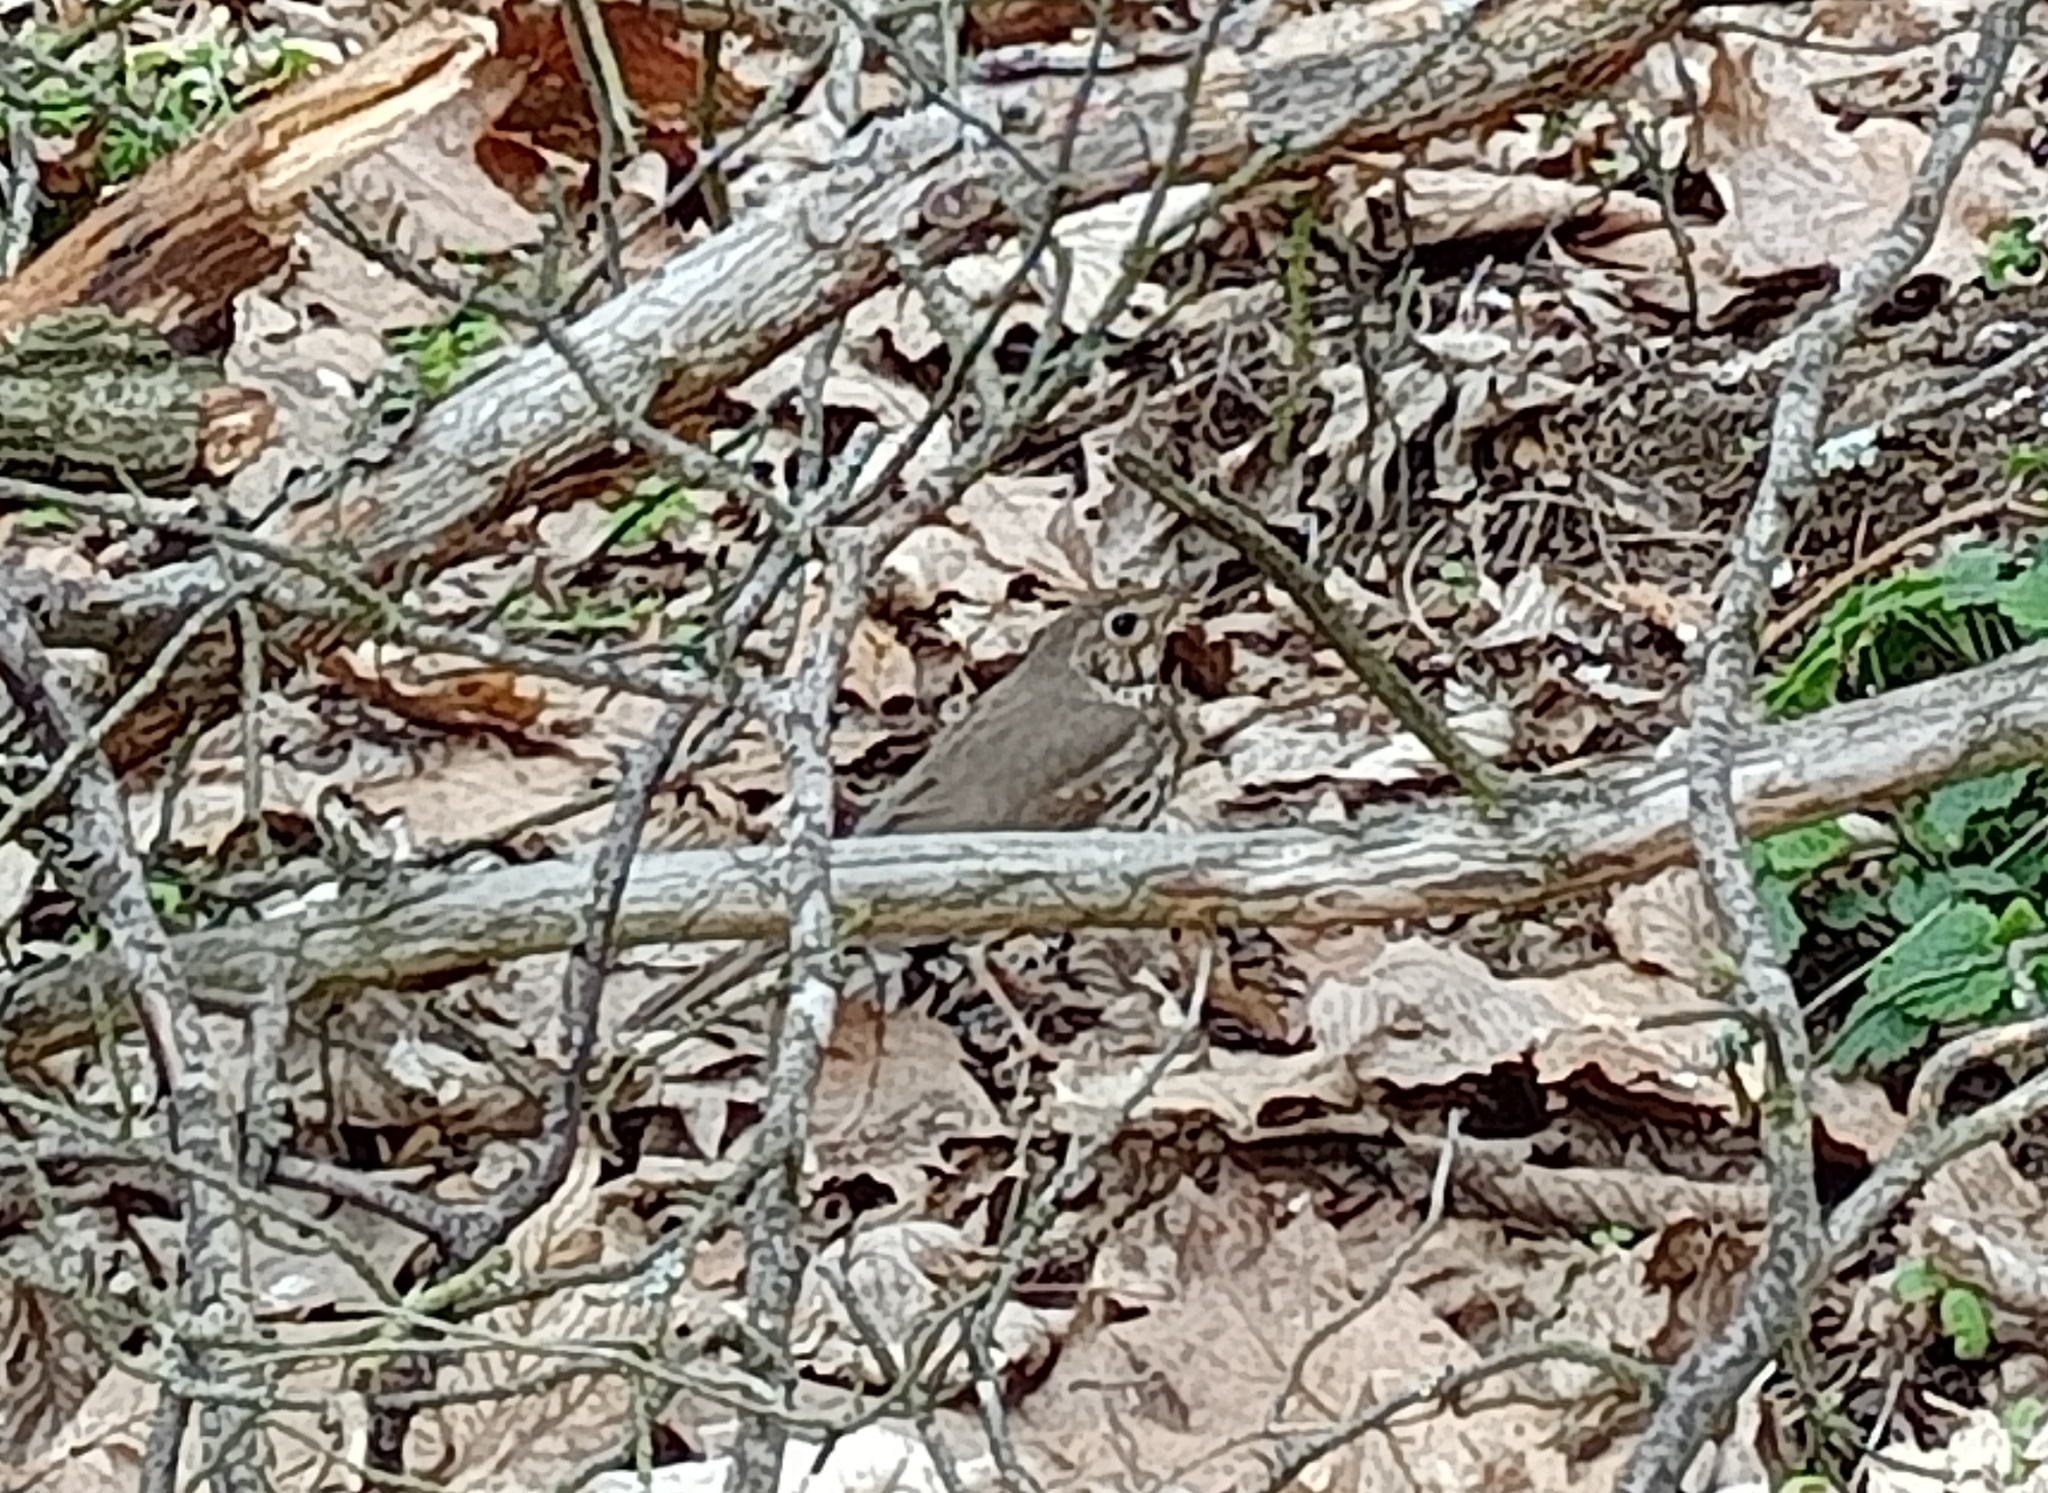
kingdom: Animalia
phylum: Chordata
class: Aves
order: Passeriformes
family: Turdidae
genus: Turdus
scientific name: Turdus philomelos
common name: Song thrush
